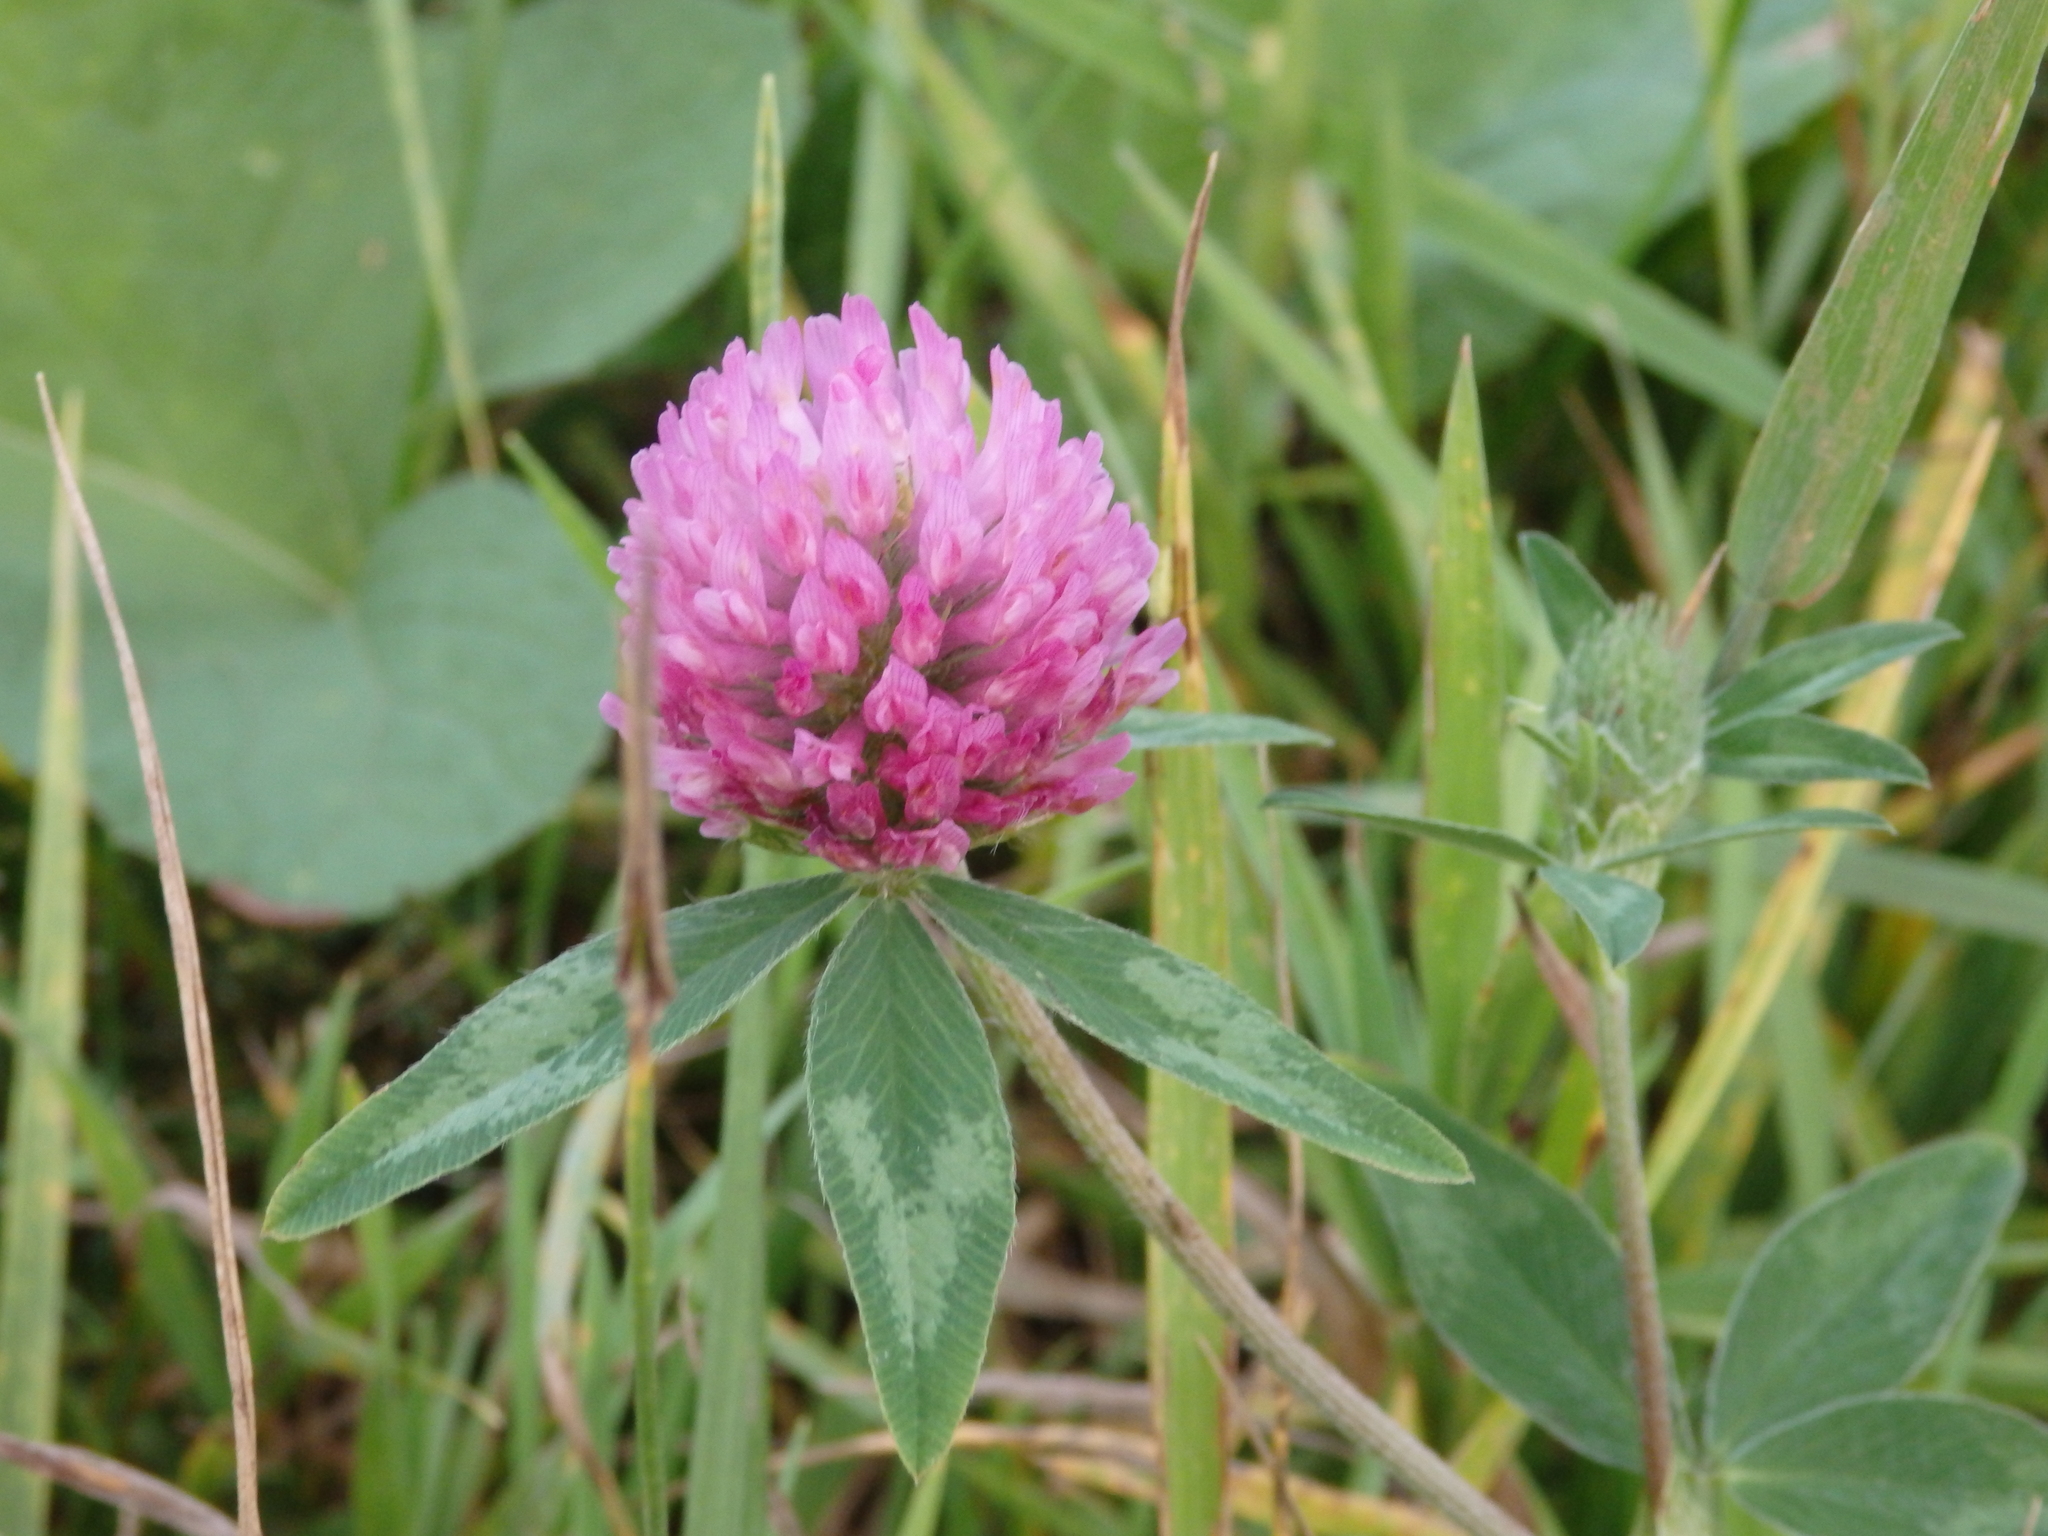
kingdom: Plantae
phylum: Tracheophyta
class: Magnoliopsida
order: Fabales
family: Fabaceae
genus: Trifolium
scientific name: Trifolium pratense
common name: Red clover
